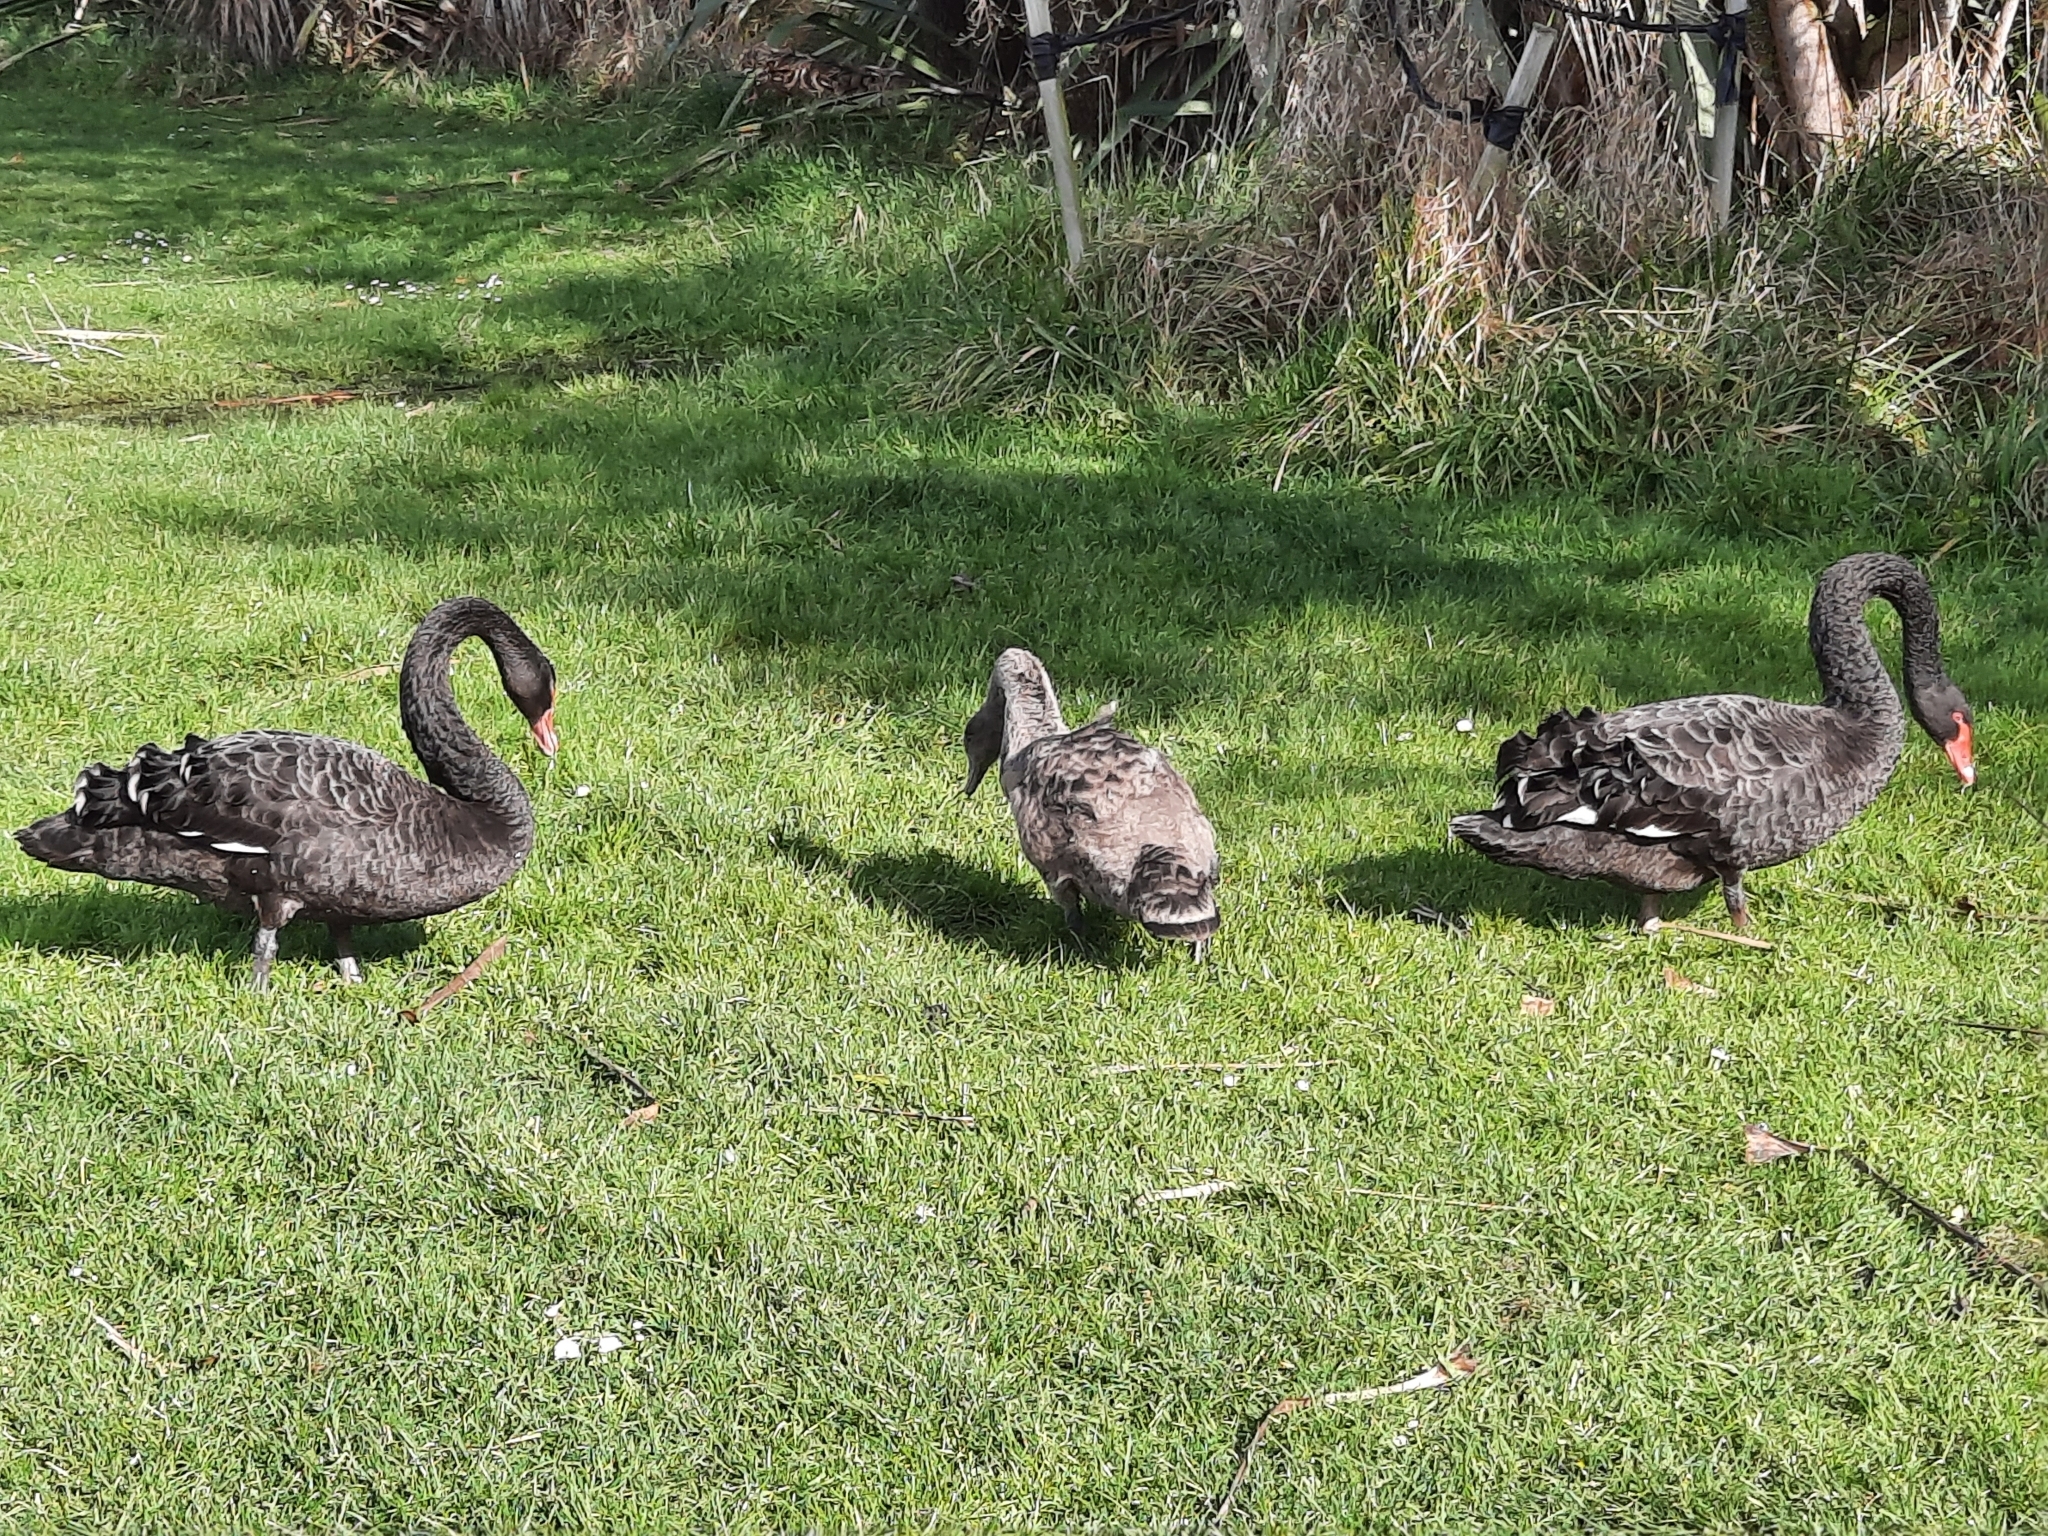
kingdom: Animalia
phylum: Chordata
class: Aves
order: Anseriformes
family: Anatidae
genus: Cygnus
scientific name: Cygnus atratus
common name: Black swan
